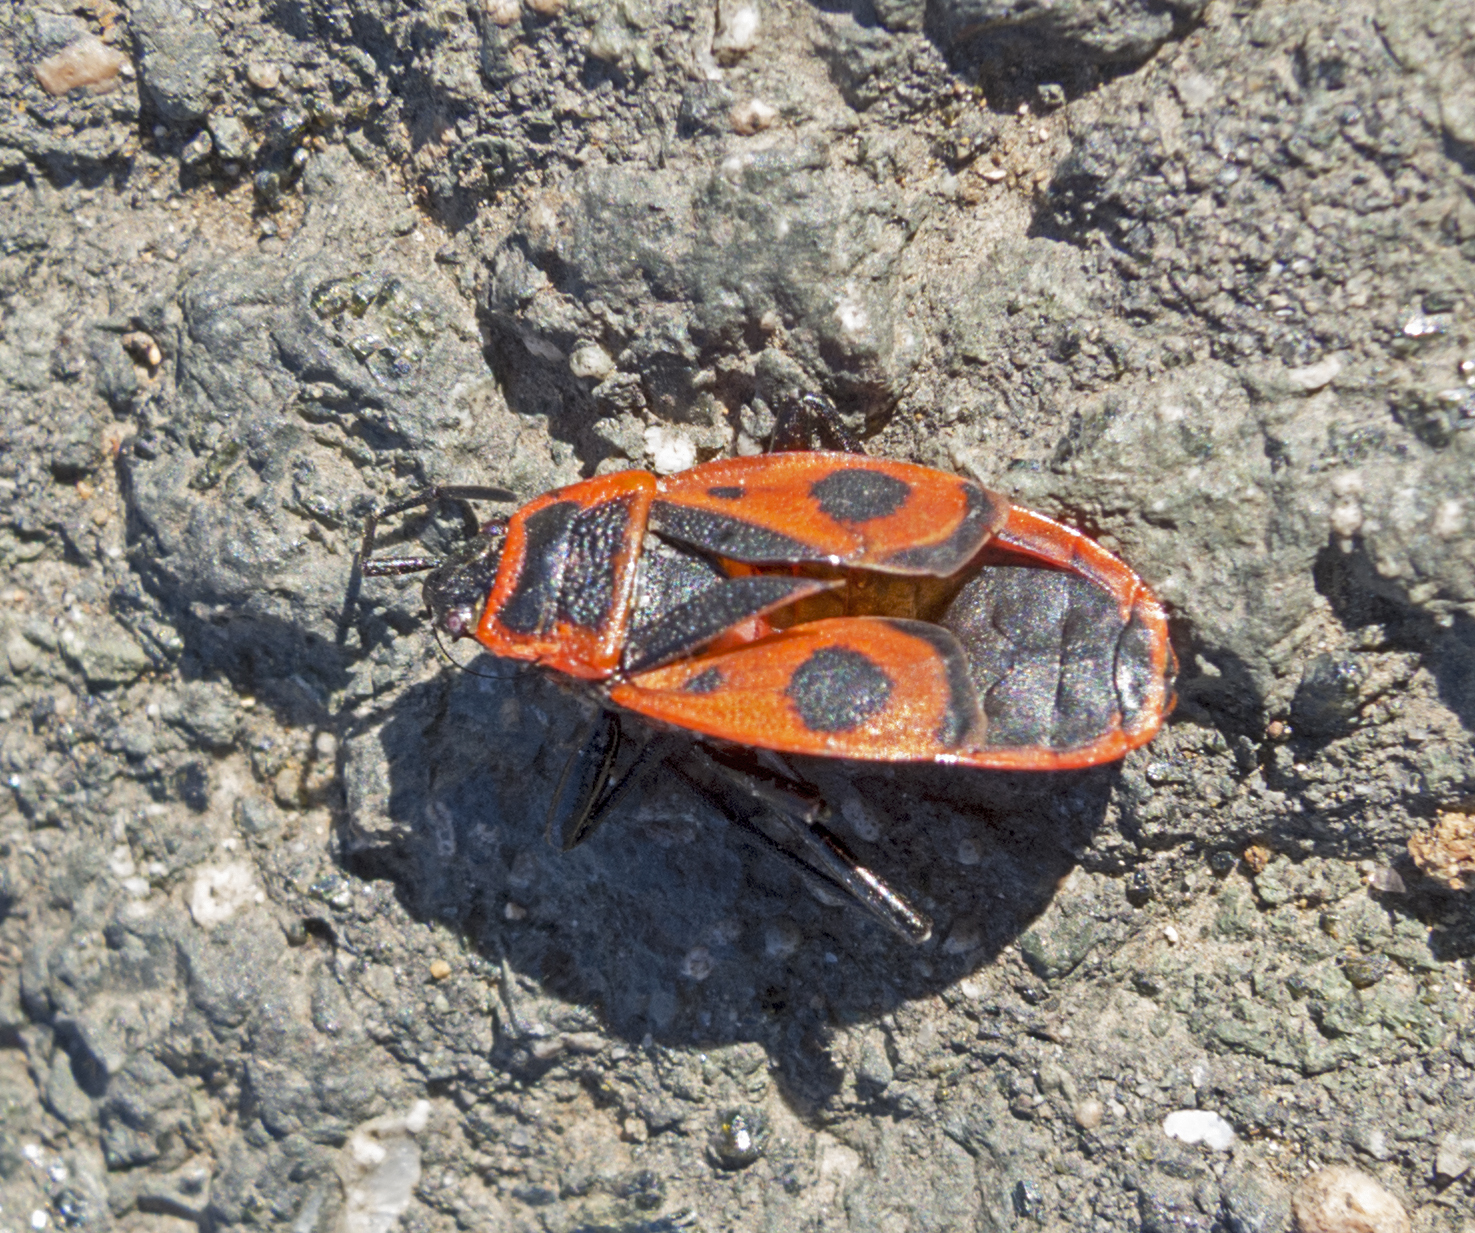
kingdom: Animalia
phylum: Arthropoda
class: Insecta
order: Hemiptera
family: Pyrrhocoridae
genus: Pyrrhocoris
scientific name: Pyrrhocoris apterus
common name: Firebug
